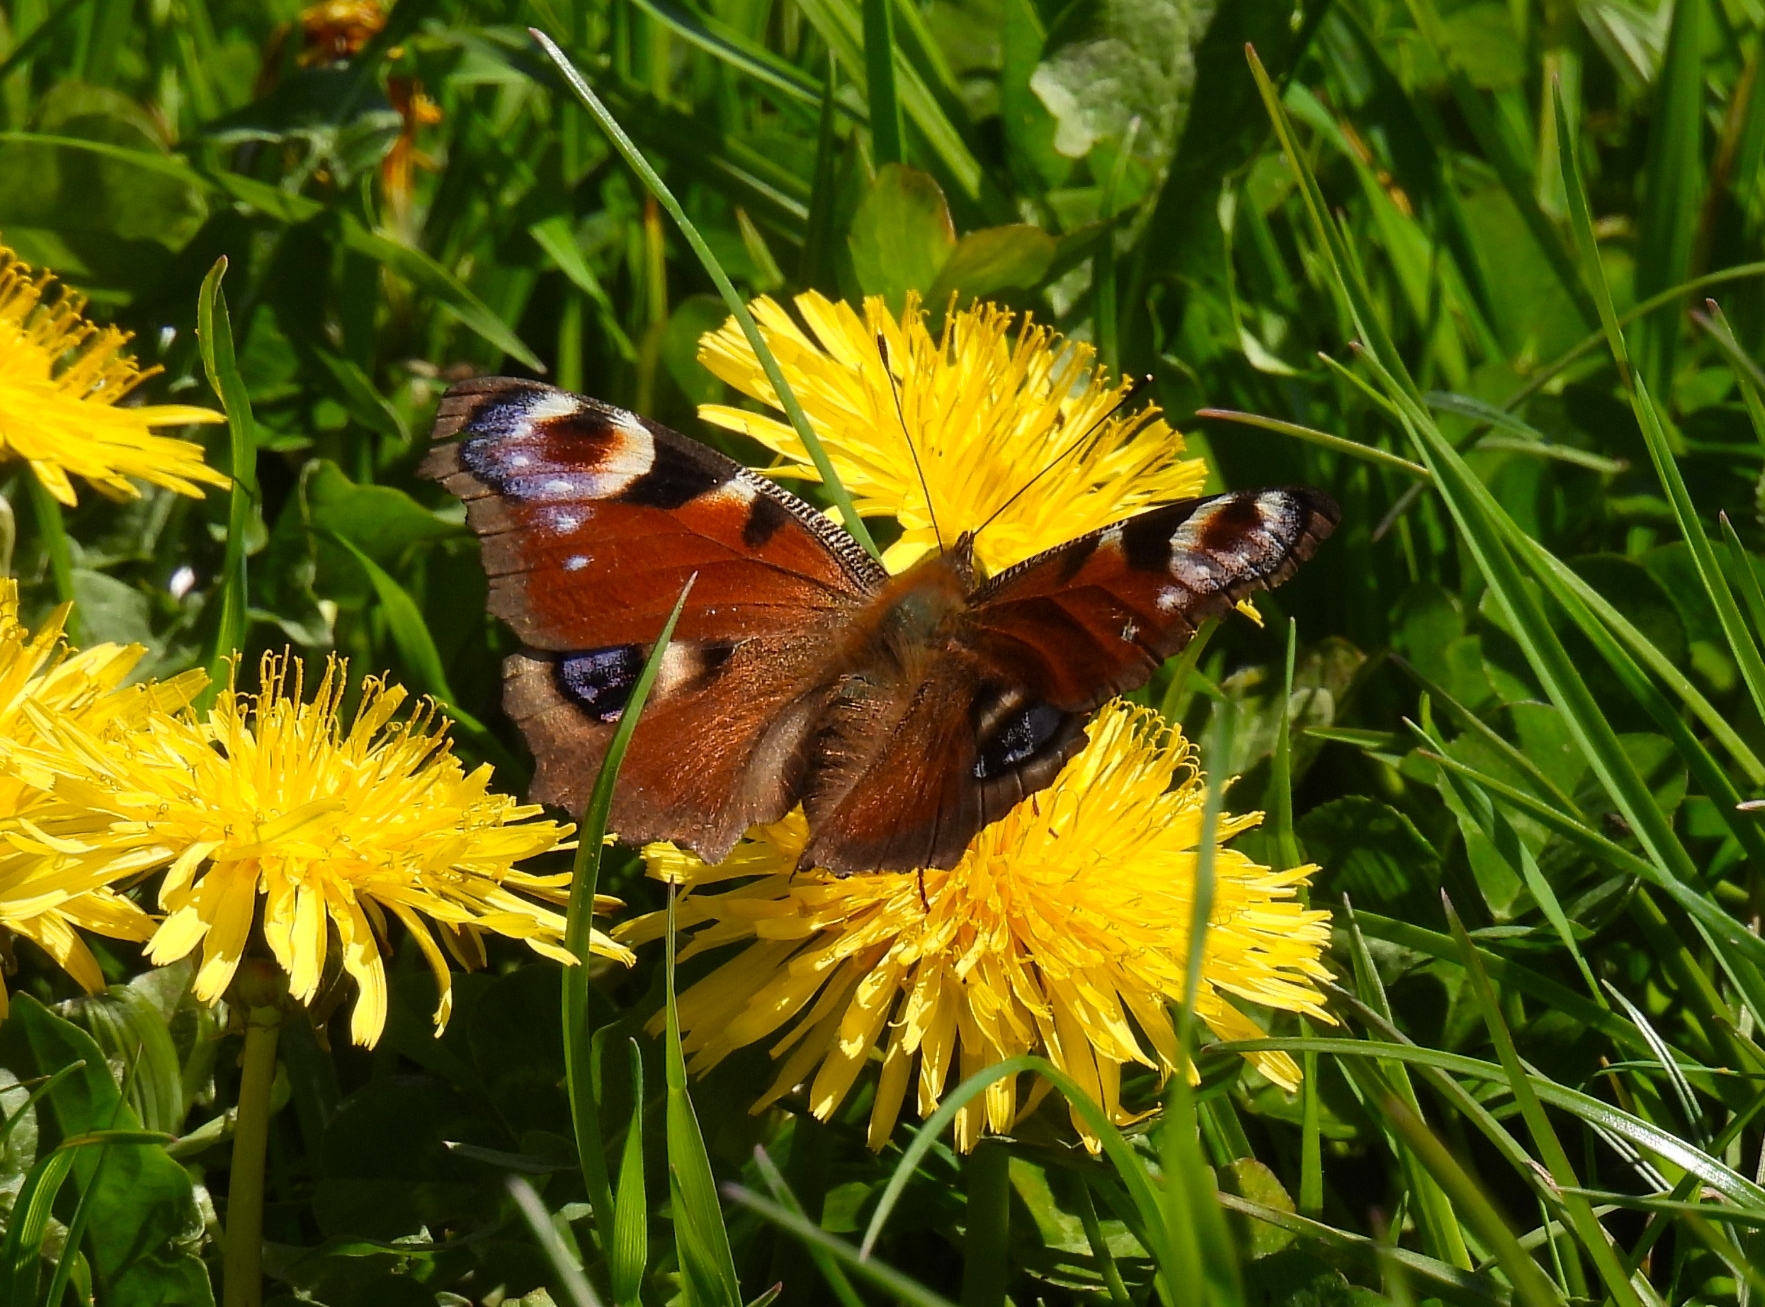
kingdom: Animalia
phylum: Arthropoda
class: Insecta
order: Lepidoptera
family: Nymphalidae
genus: Aglais
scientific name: Aglais io
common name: Peacock
